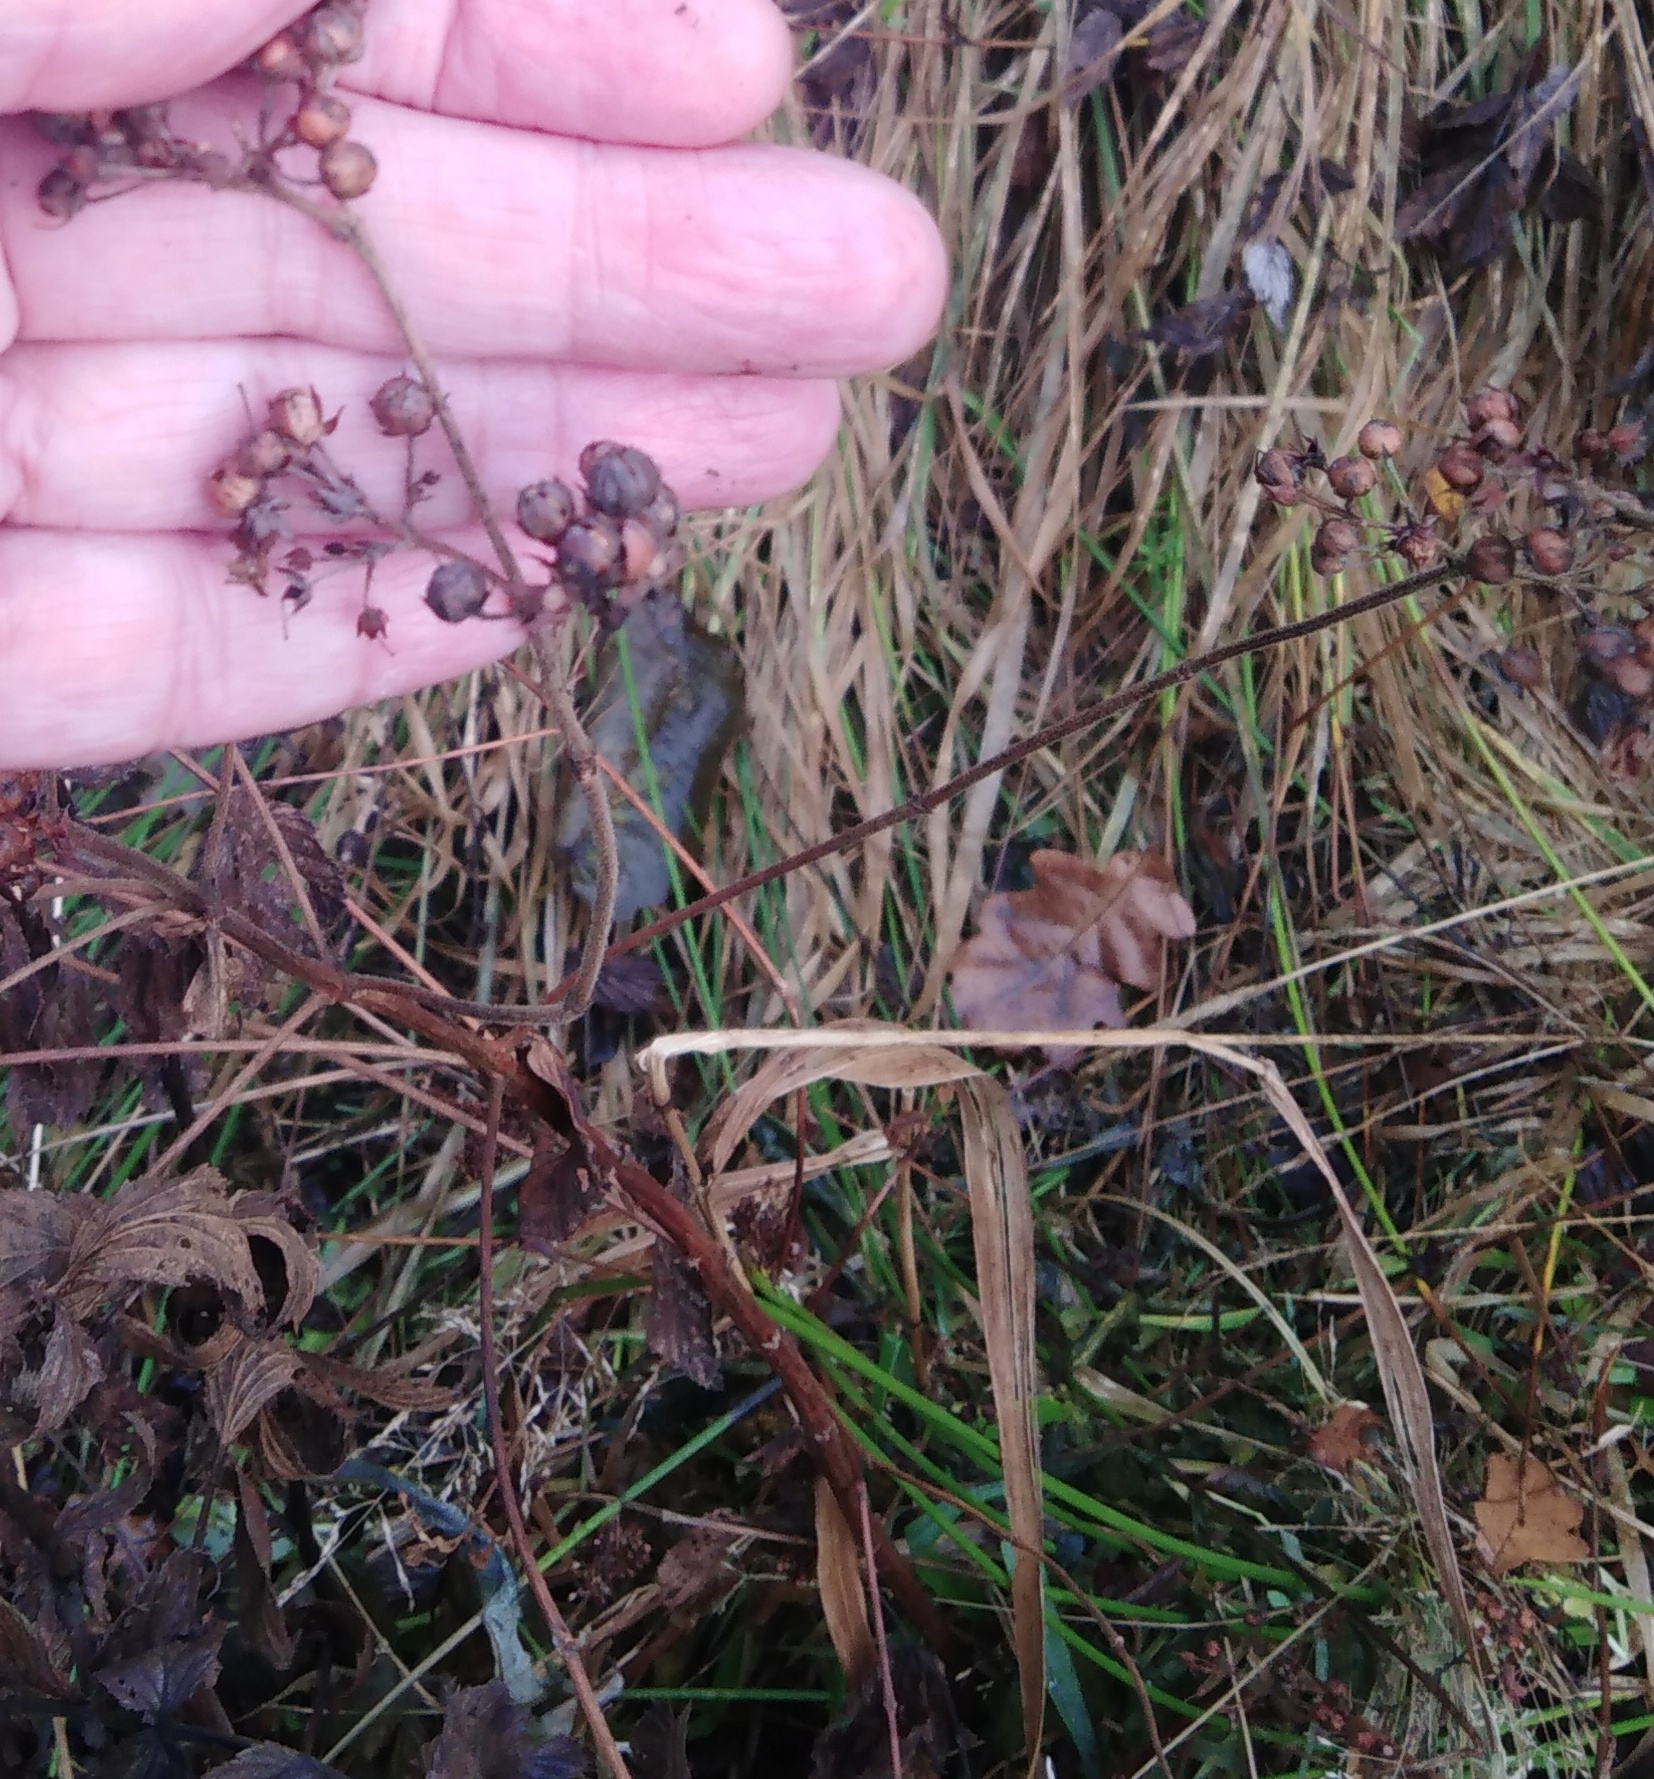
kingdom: Plantae
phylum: Tracheophyta
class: Magnoliopsida
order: Ericales
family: Primulaceae
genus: Lysimachia
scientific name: Lysimachia vulgaris
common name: Yellow loosestrife
